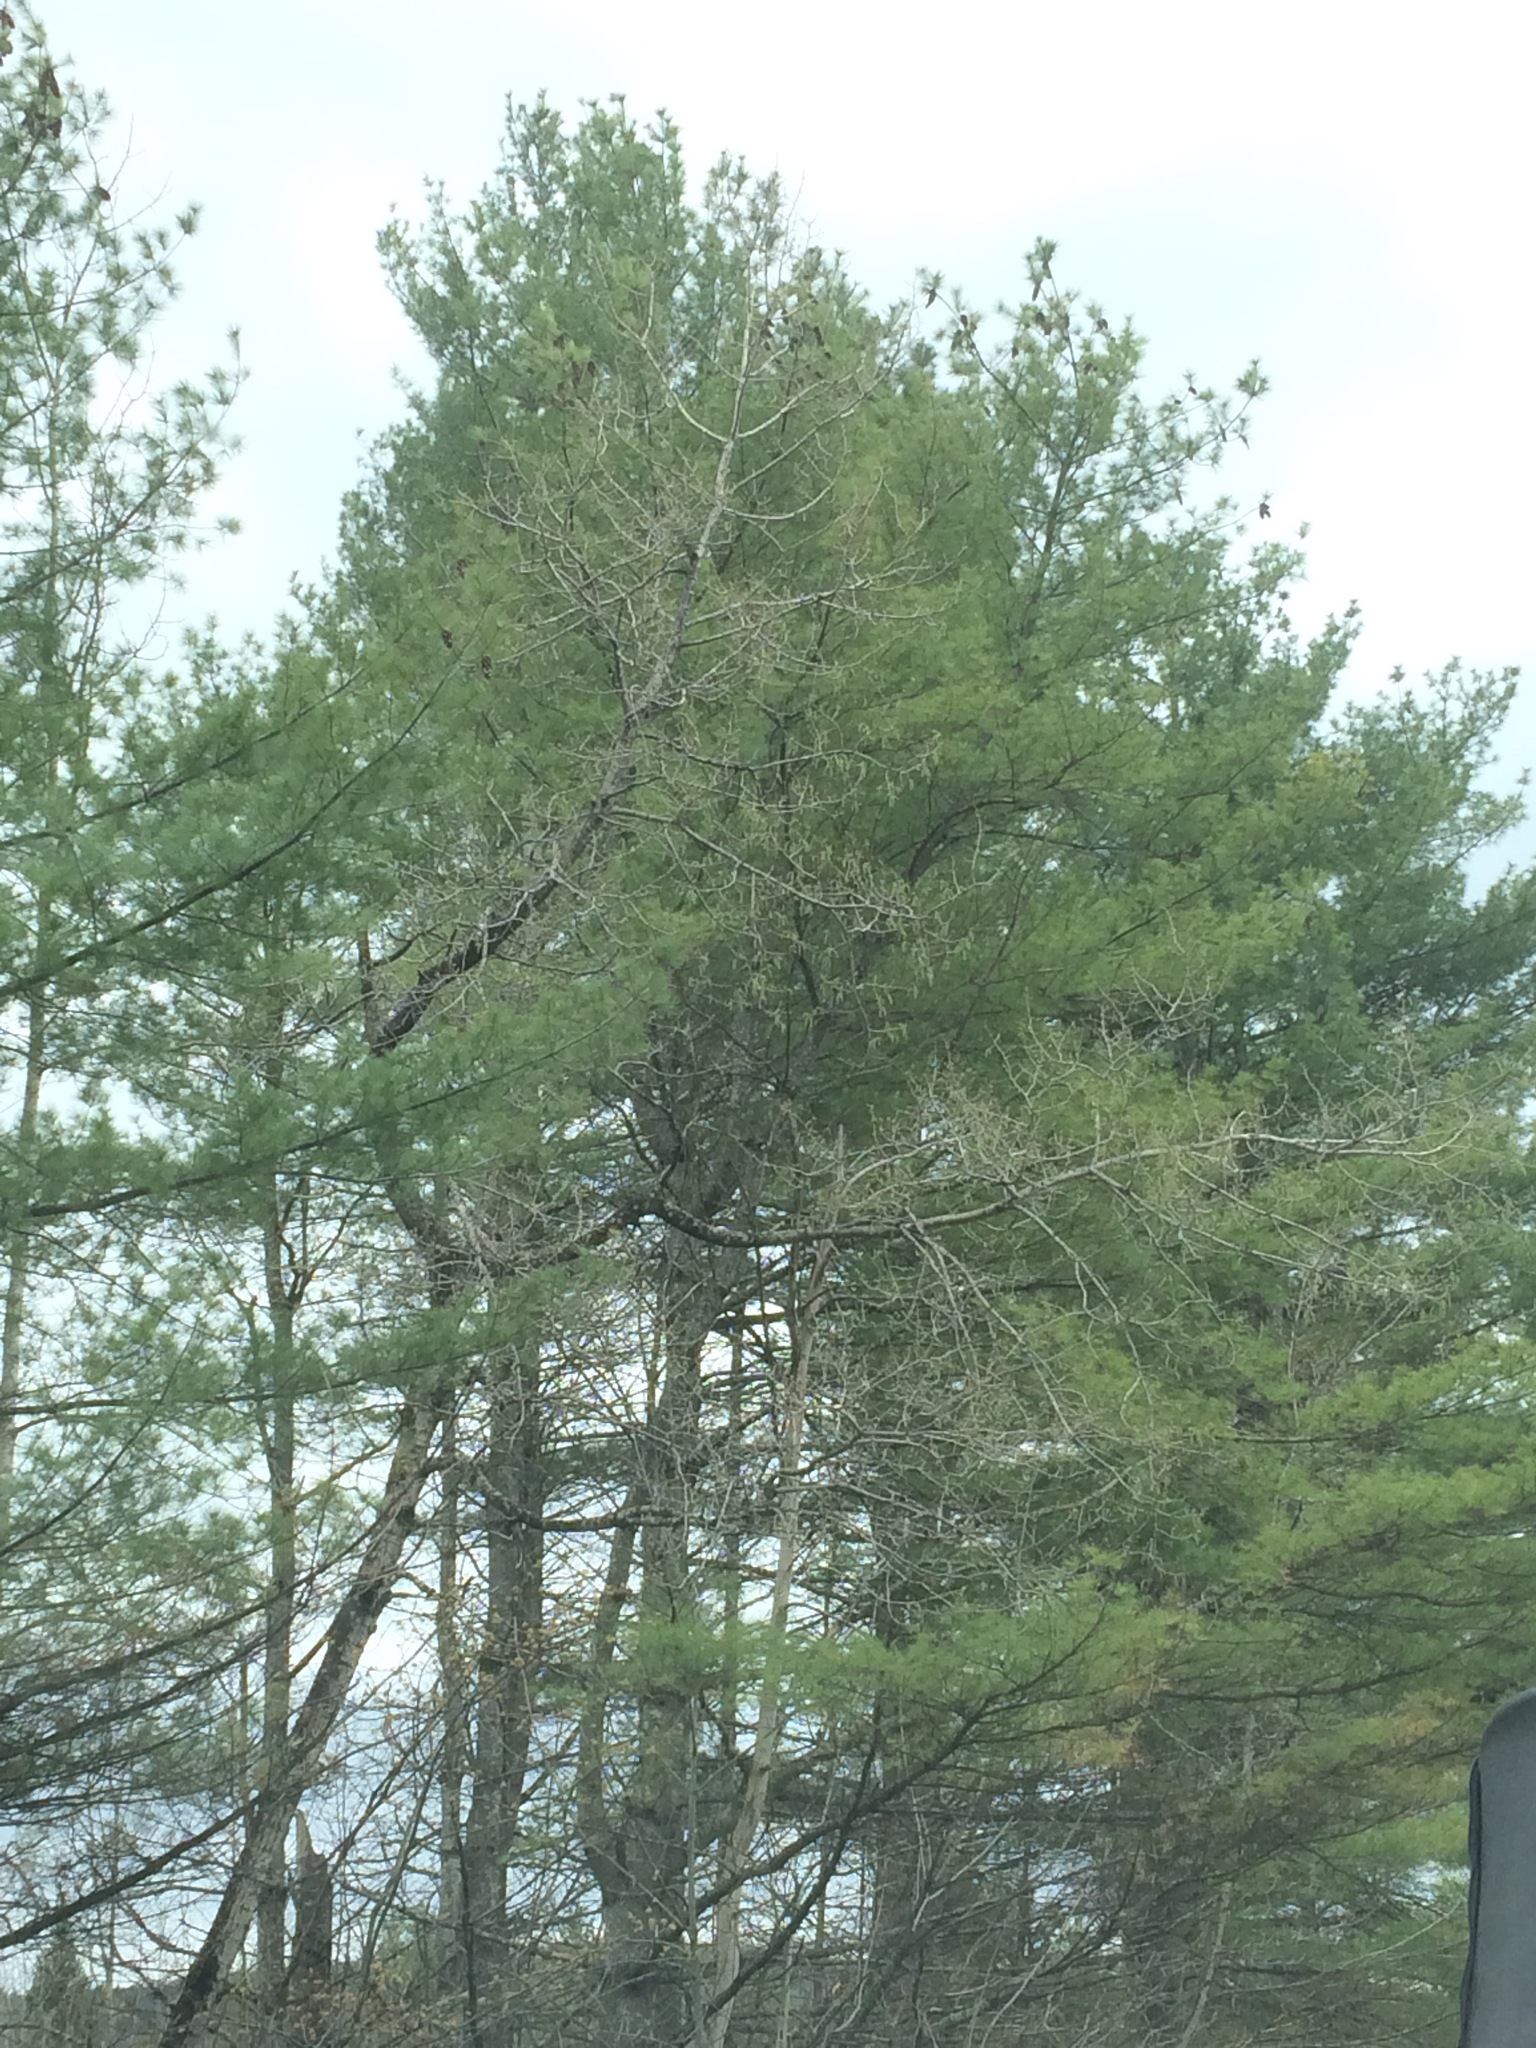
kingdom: Plantae
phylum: Tracheophyta
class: Pinopsida
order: Pinales
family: Pinaceae
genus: Pinus
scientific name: Pinus strobus
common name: Weymouth pine
